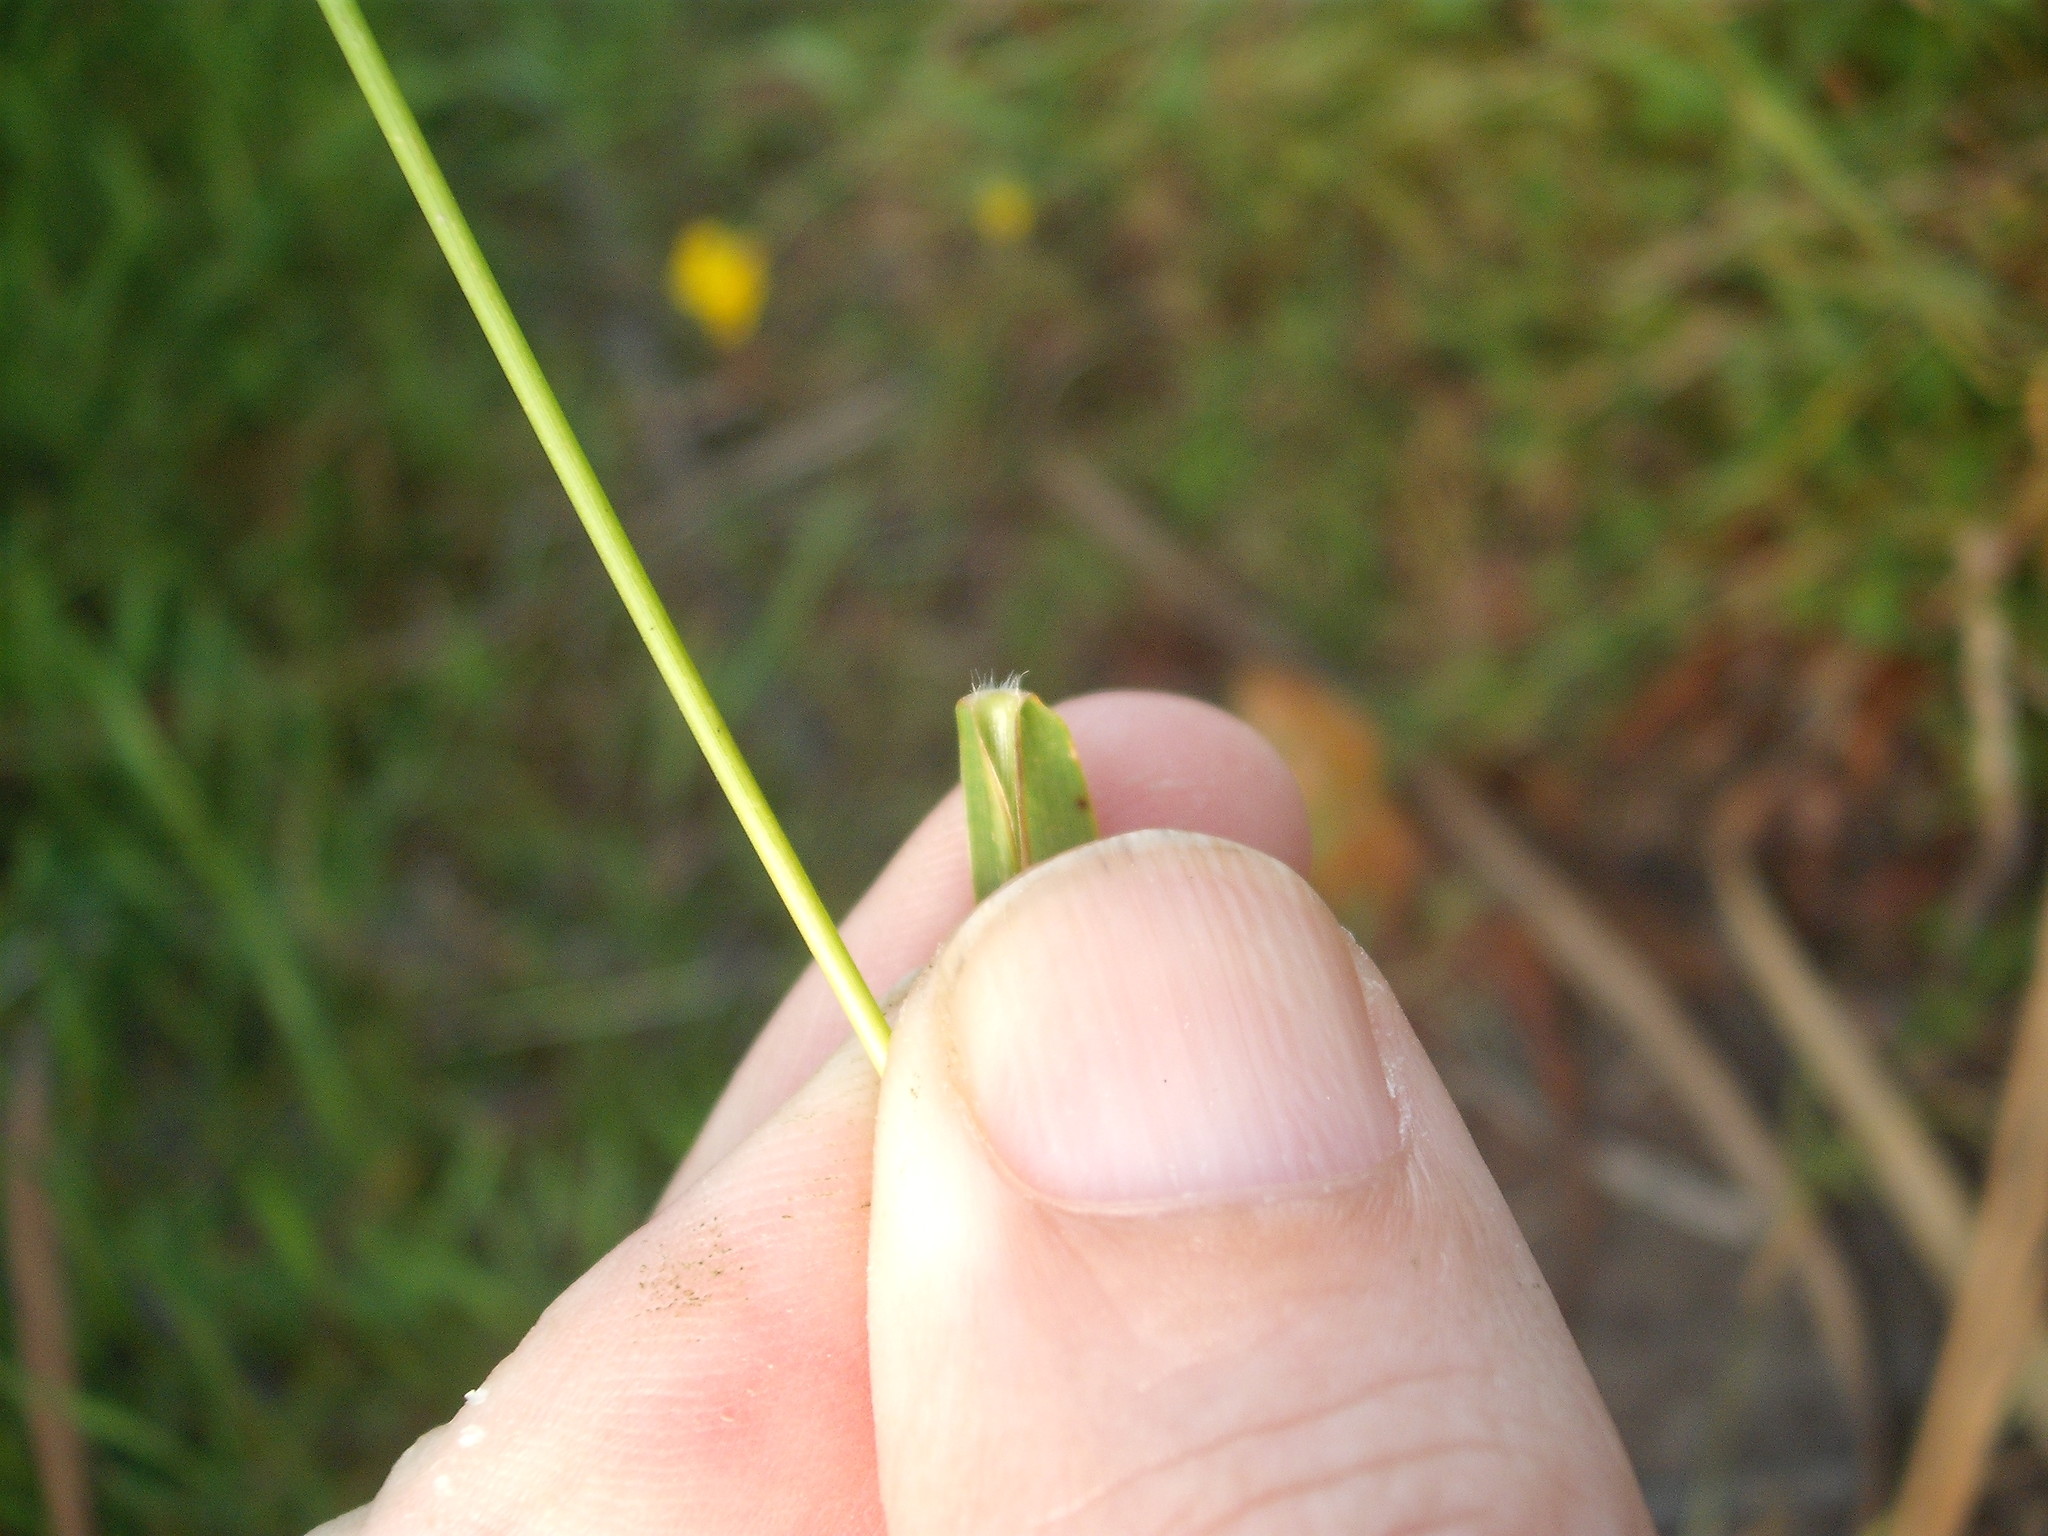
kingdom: Plantae
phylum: Tracheophyta
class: Liliopsida
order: Poales
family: Poaceae
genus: Isachne
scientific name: Isachne globosa
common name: Swamp millet
